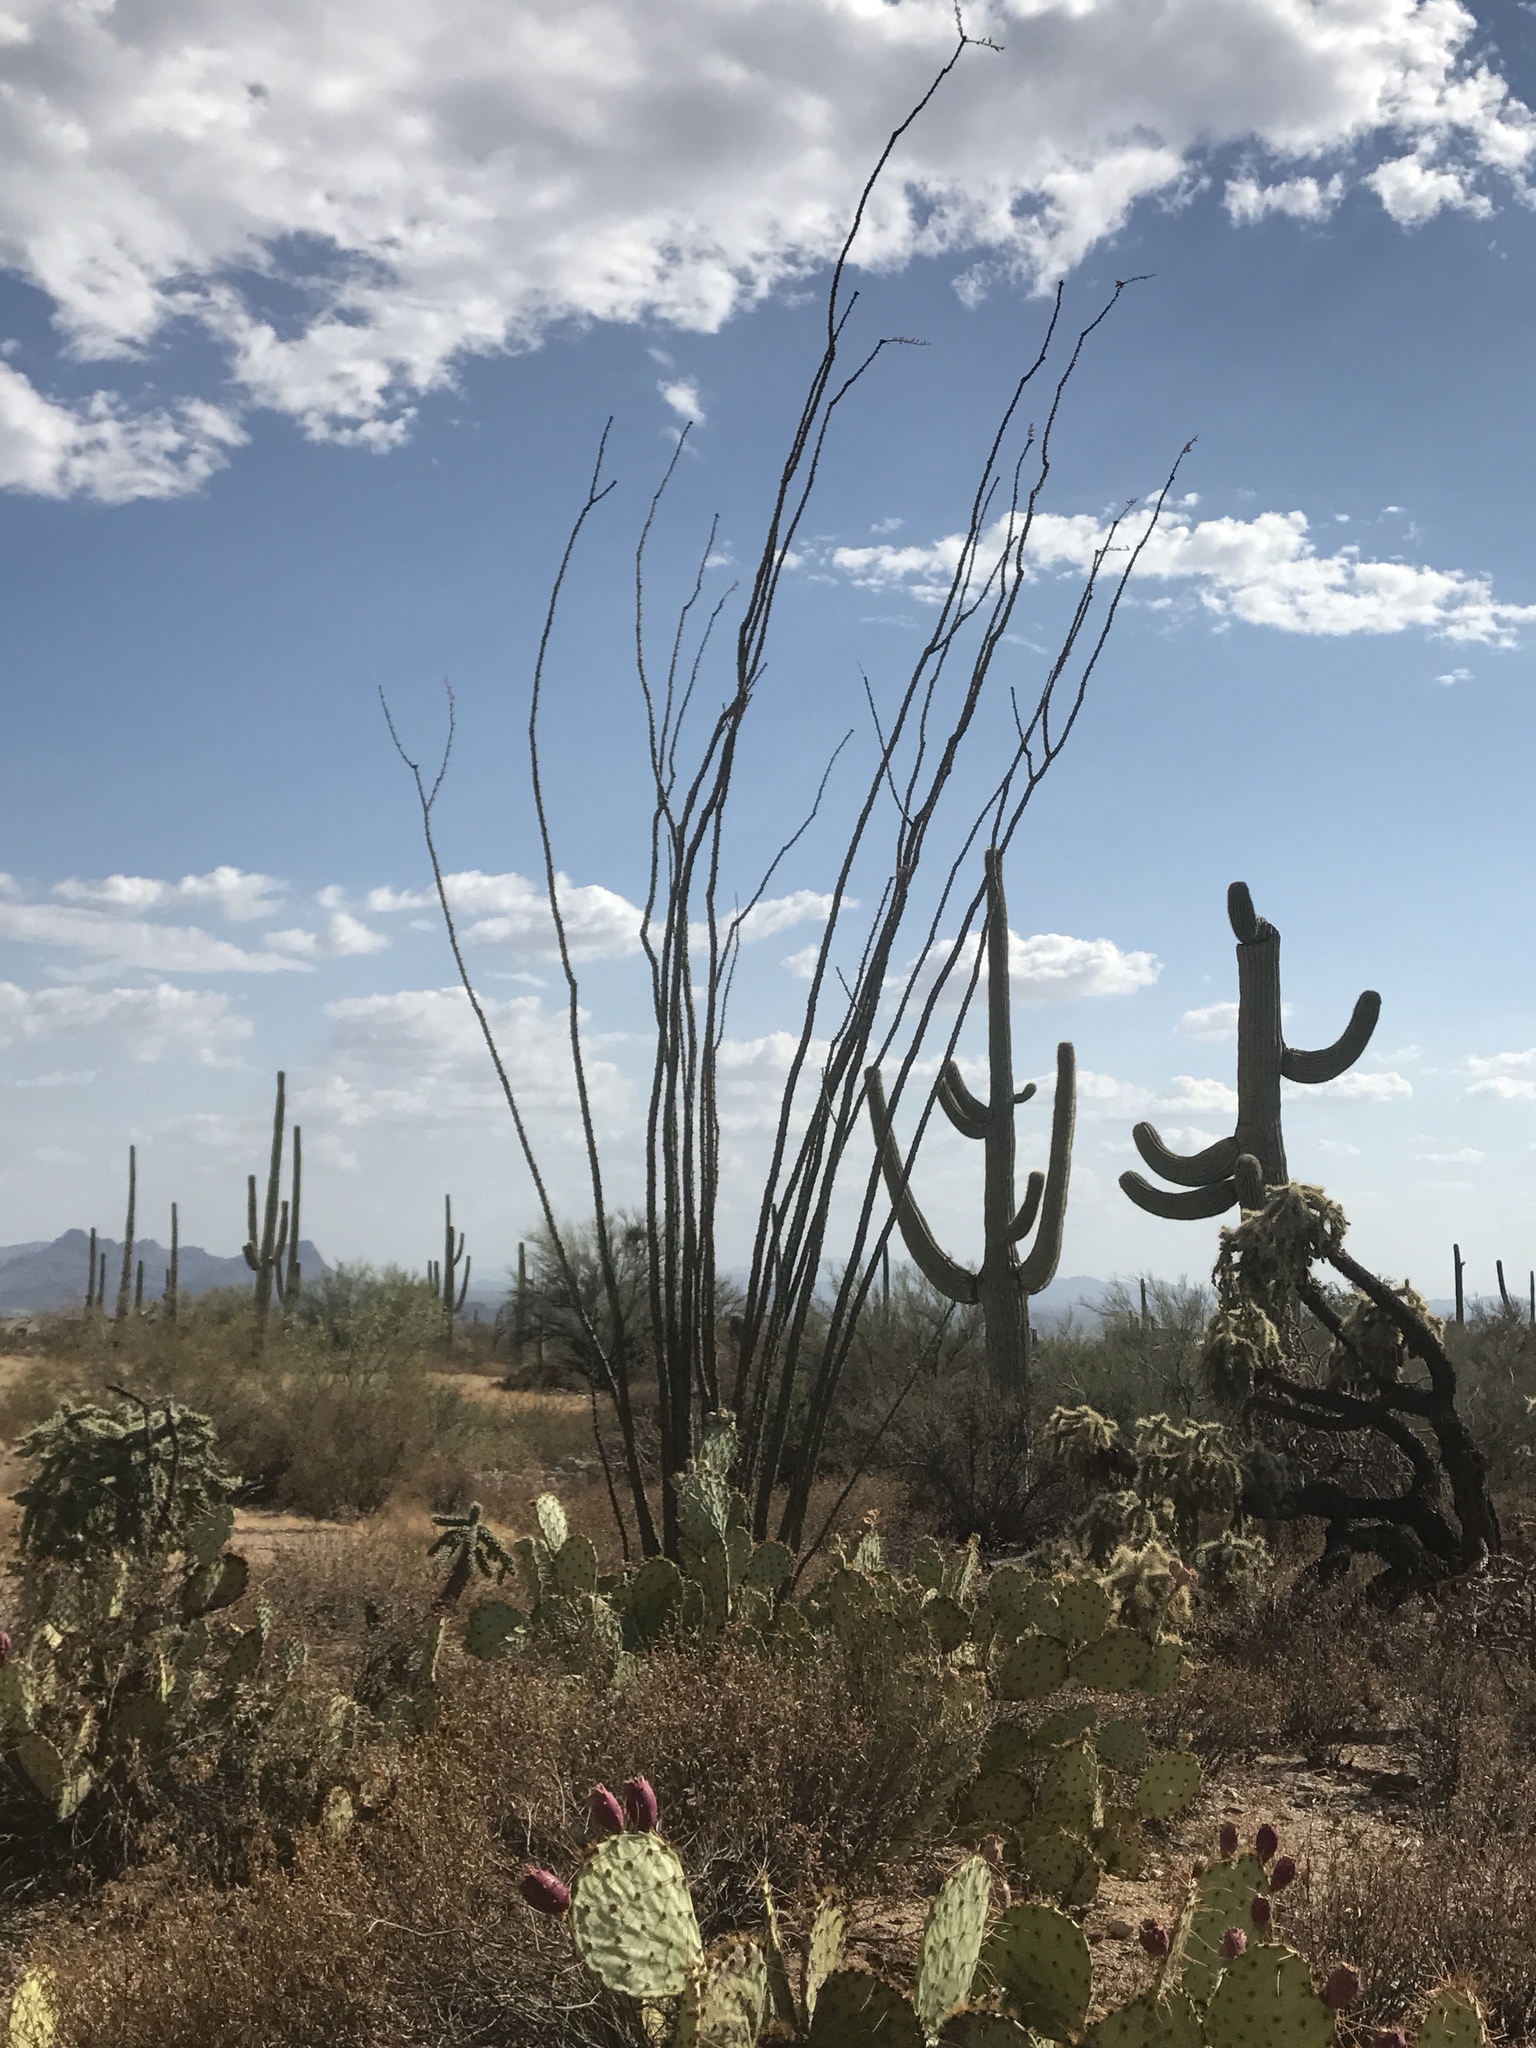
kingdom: Plantae
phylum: Tracheophyta
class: Magnoliopsida
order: Ericales
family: Fouquieriaceae
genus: Fouquieria
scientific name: Fouquieria splendens
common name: Vine-cactus
